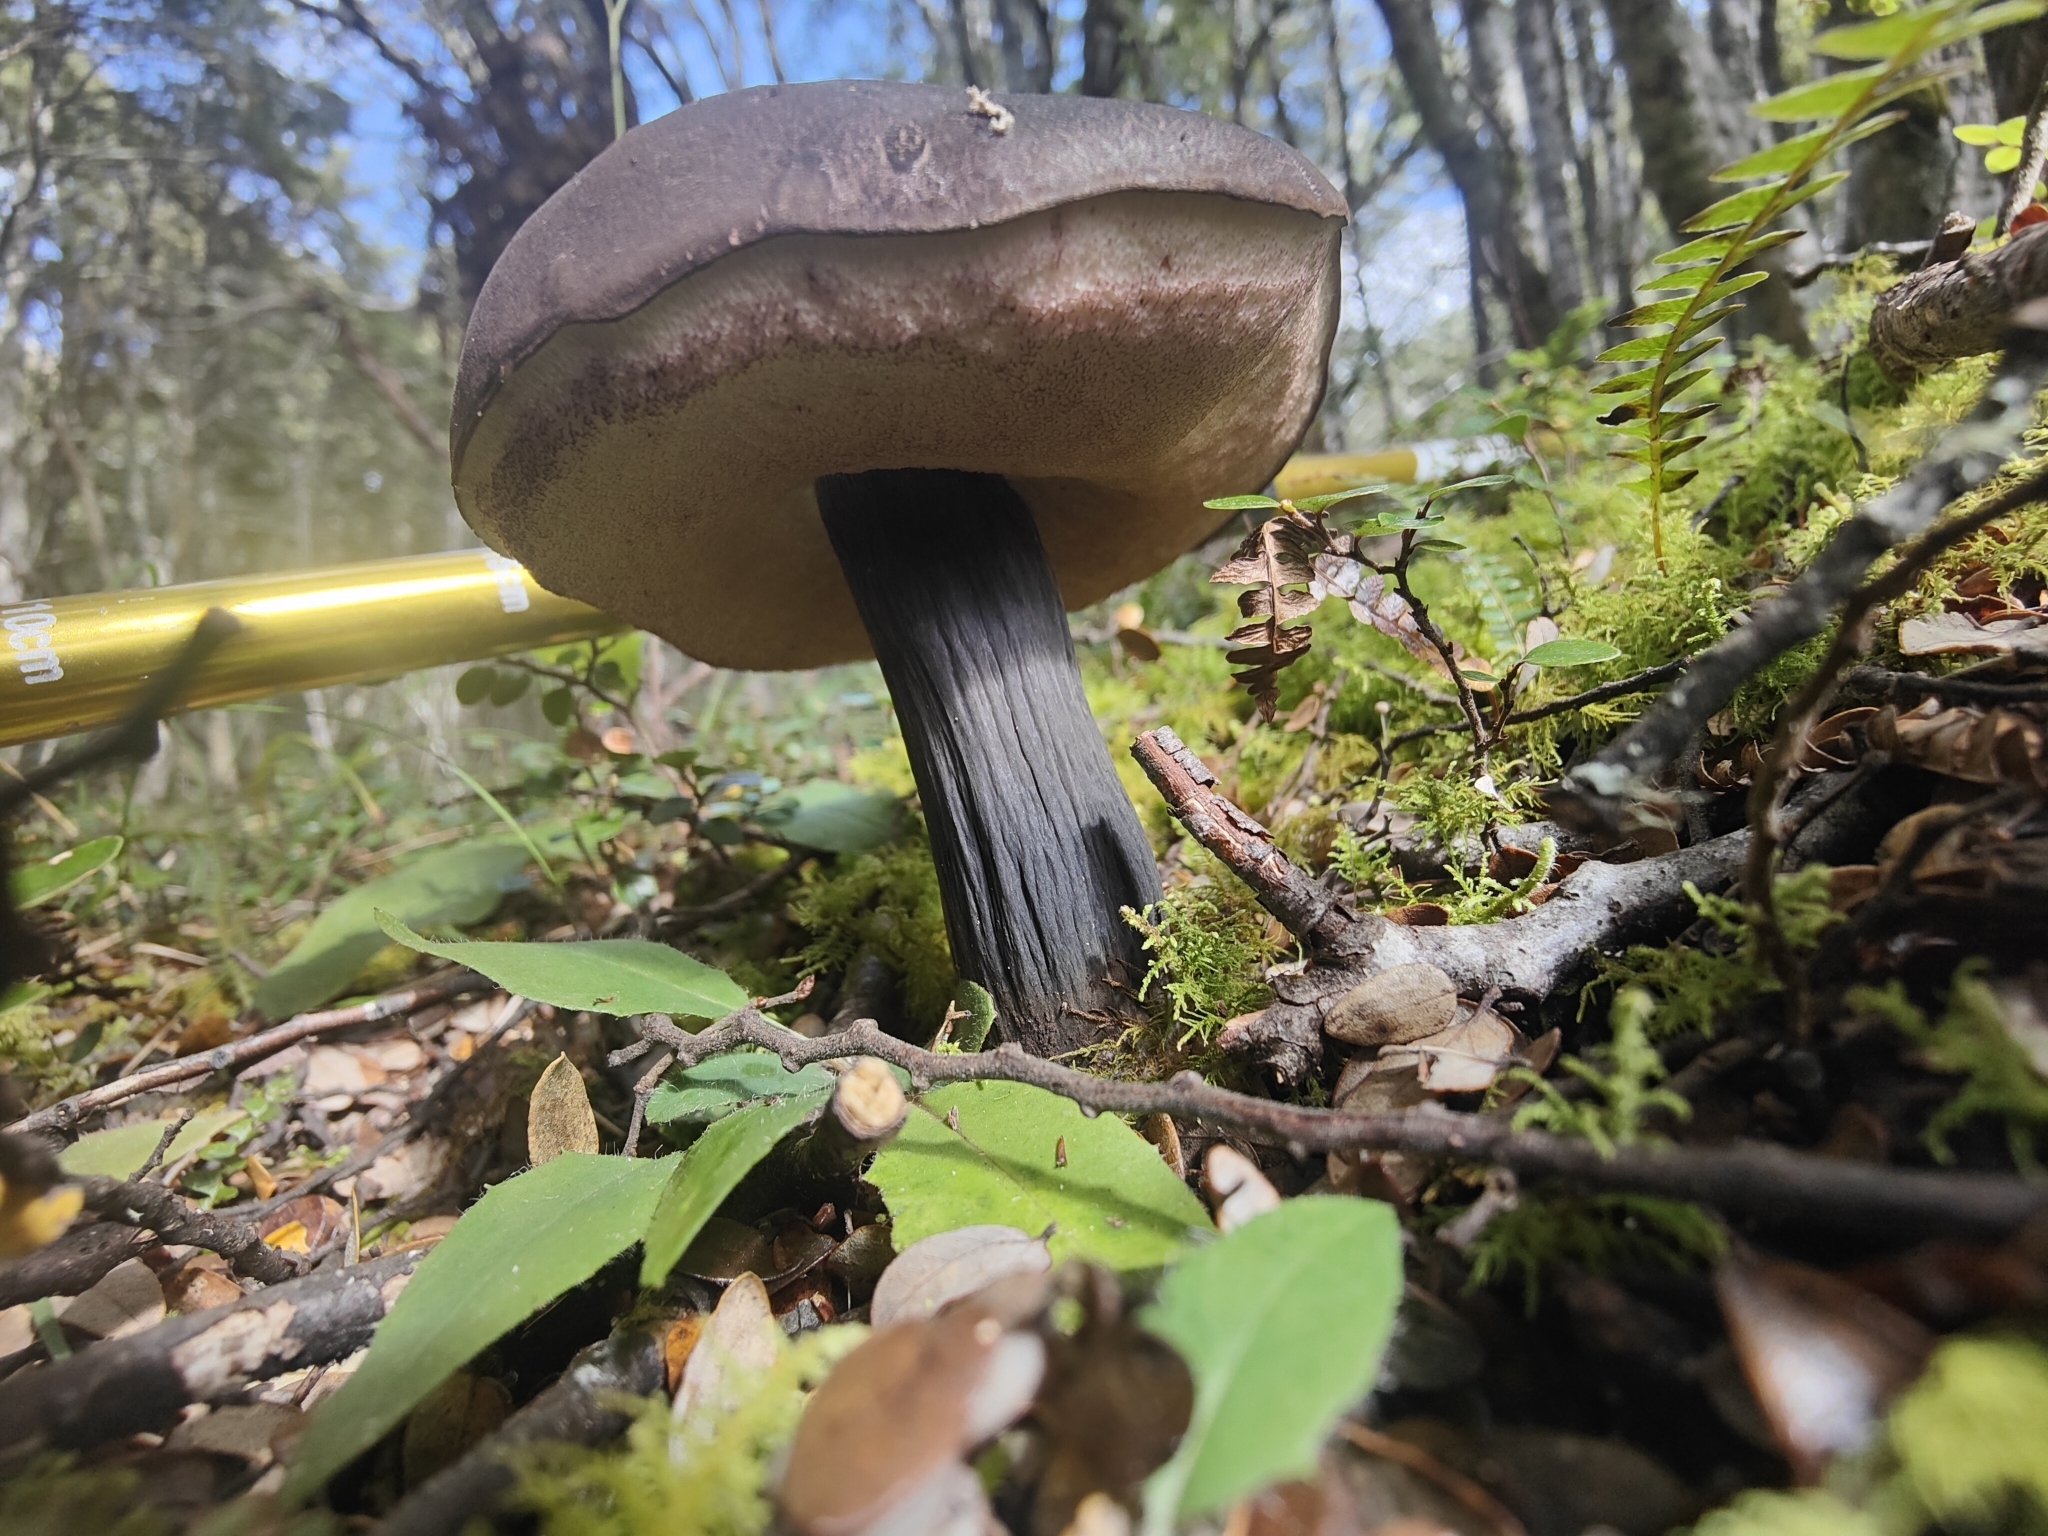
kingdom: Fungi
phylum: Basidiomycota
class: Agaricomycetes
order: Boletales
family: Boletaceae
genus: Porphyrellus
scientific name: Porphyrellus formosus
